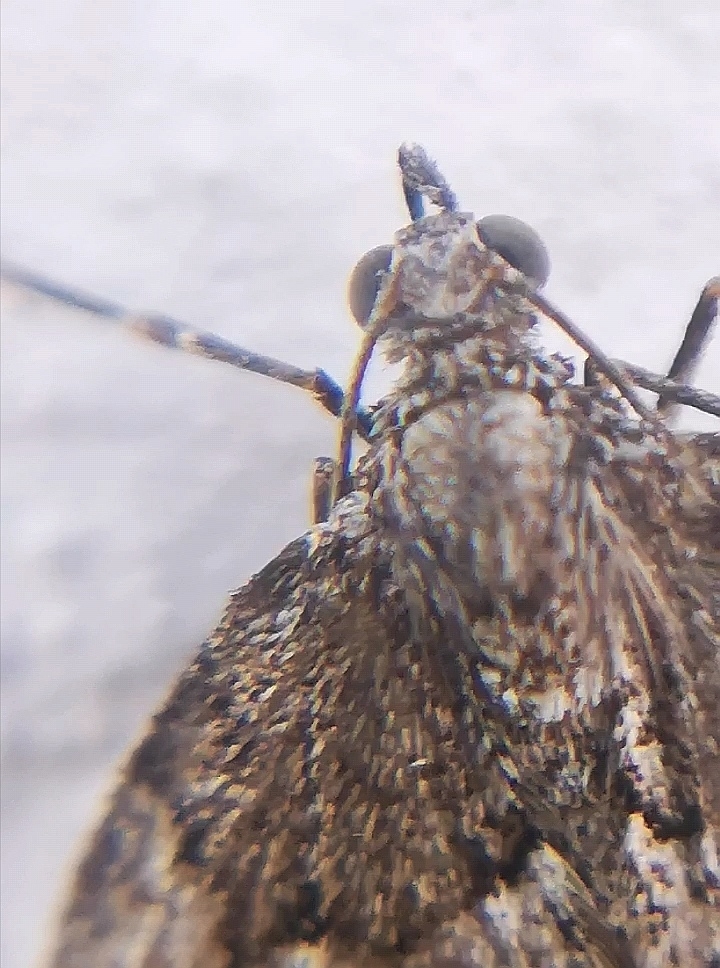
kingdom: Animalia
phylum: Arthropoda
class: Insecta
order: Lepidoptera
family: Geometridae
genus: Thera
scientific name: Thera juniperata
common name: Juniper carpet
